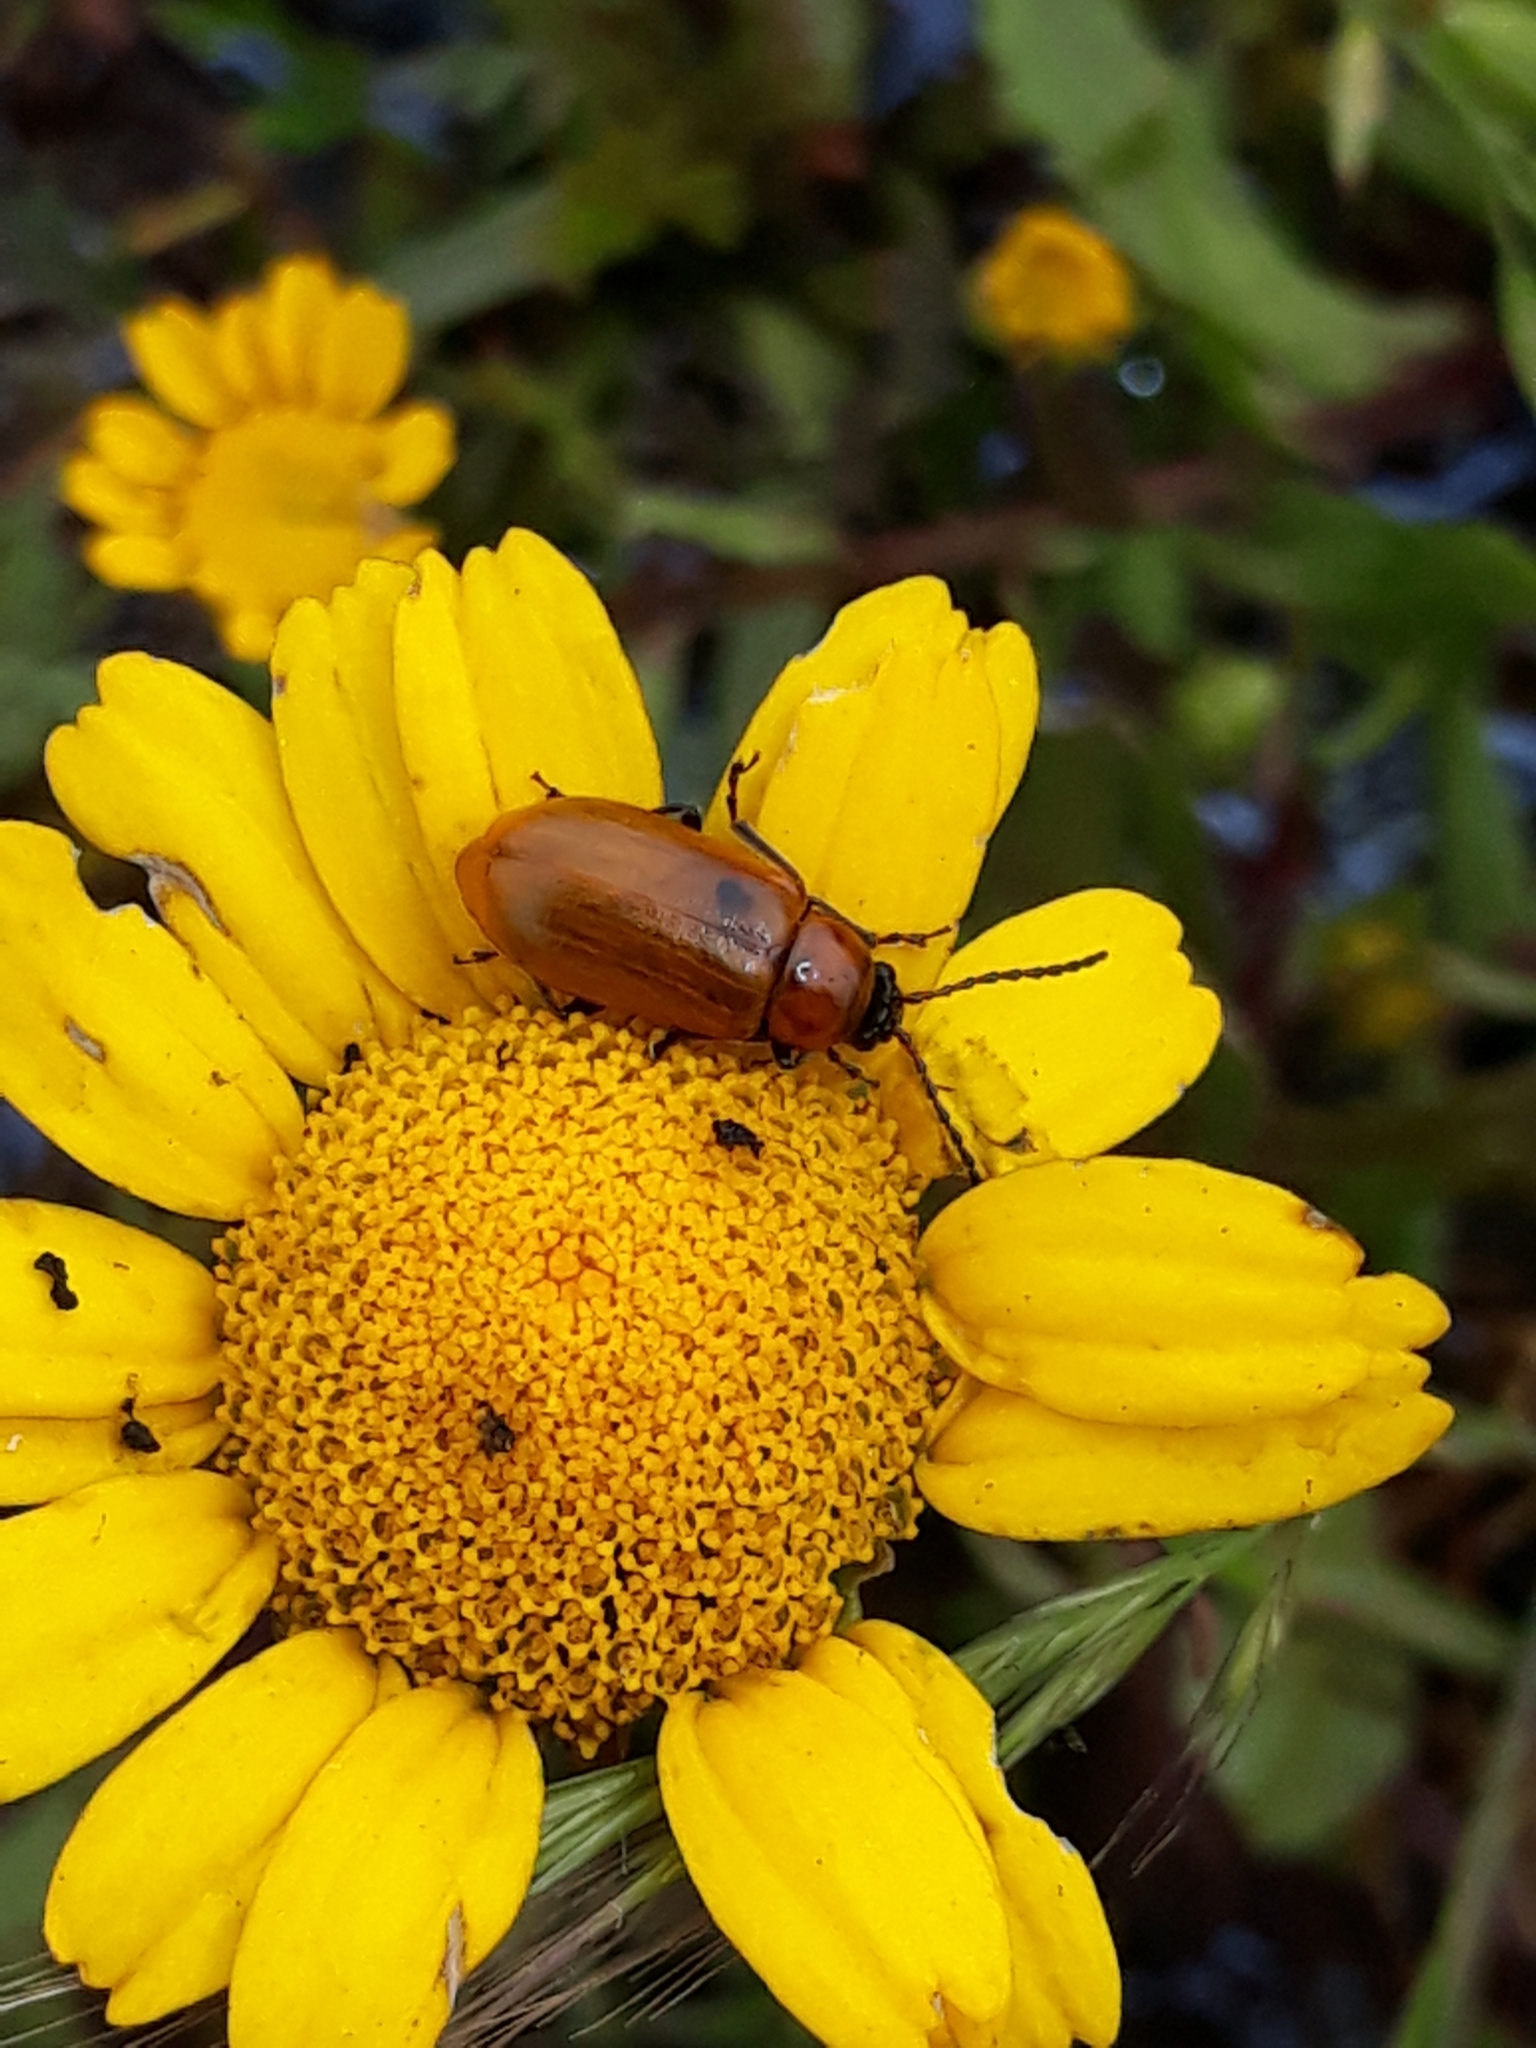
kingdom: Animalia
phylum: Arthropoda
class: Insecta
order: Coleoptera
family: Chrysomelidae
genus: Exosoma
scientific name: Exosoma lusitanicum
